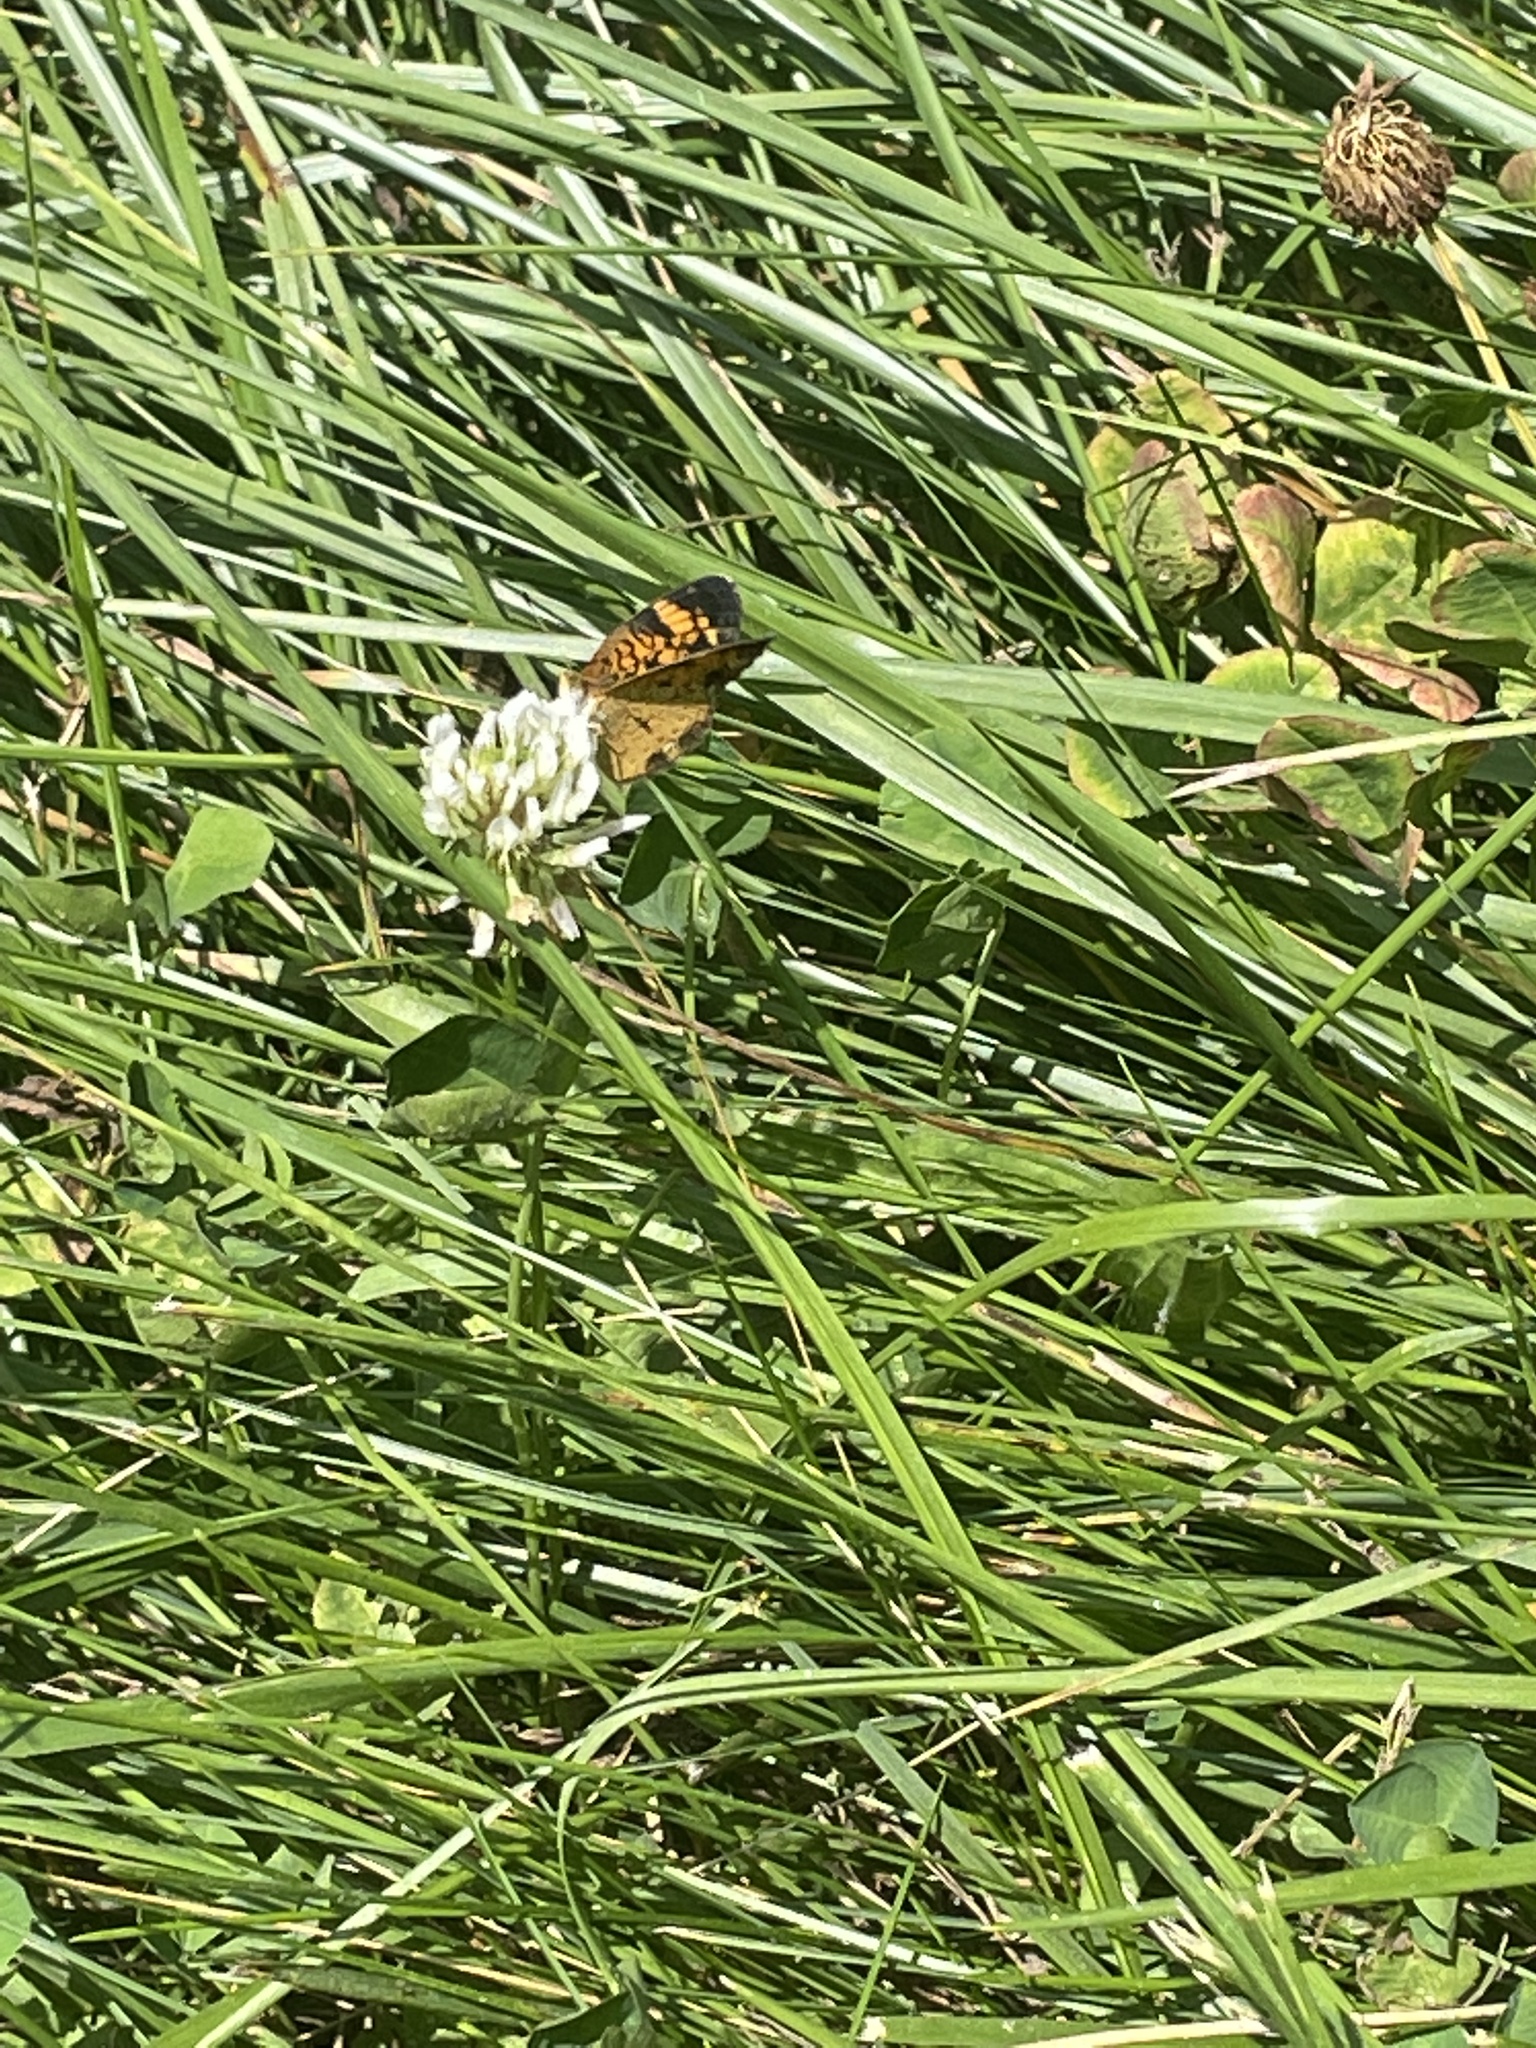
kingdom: Animalia
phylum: Arthropoda
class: Insecta
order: Lepidoptera
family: Nymphalidae
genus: Phyciodes
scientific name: Phyciodes tharos
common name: Pearl crescent
